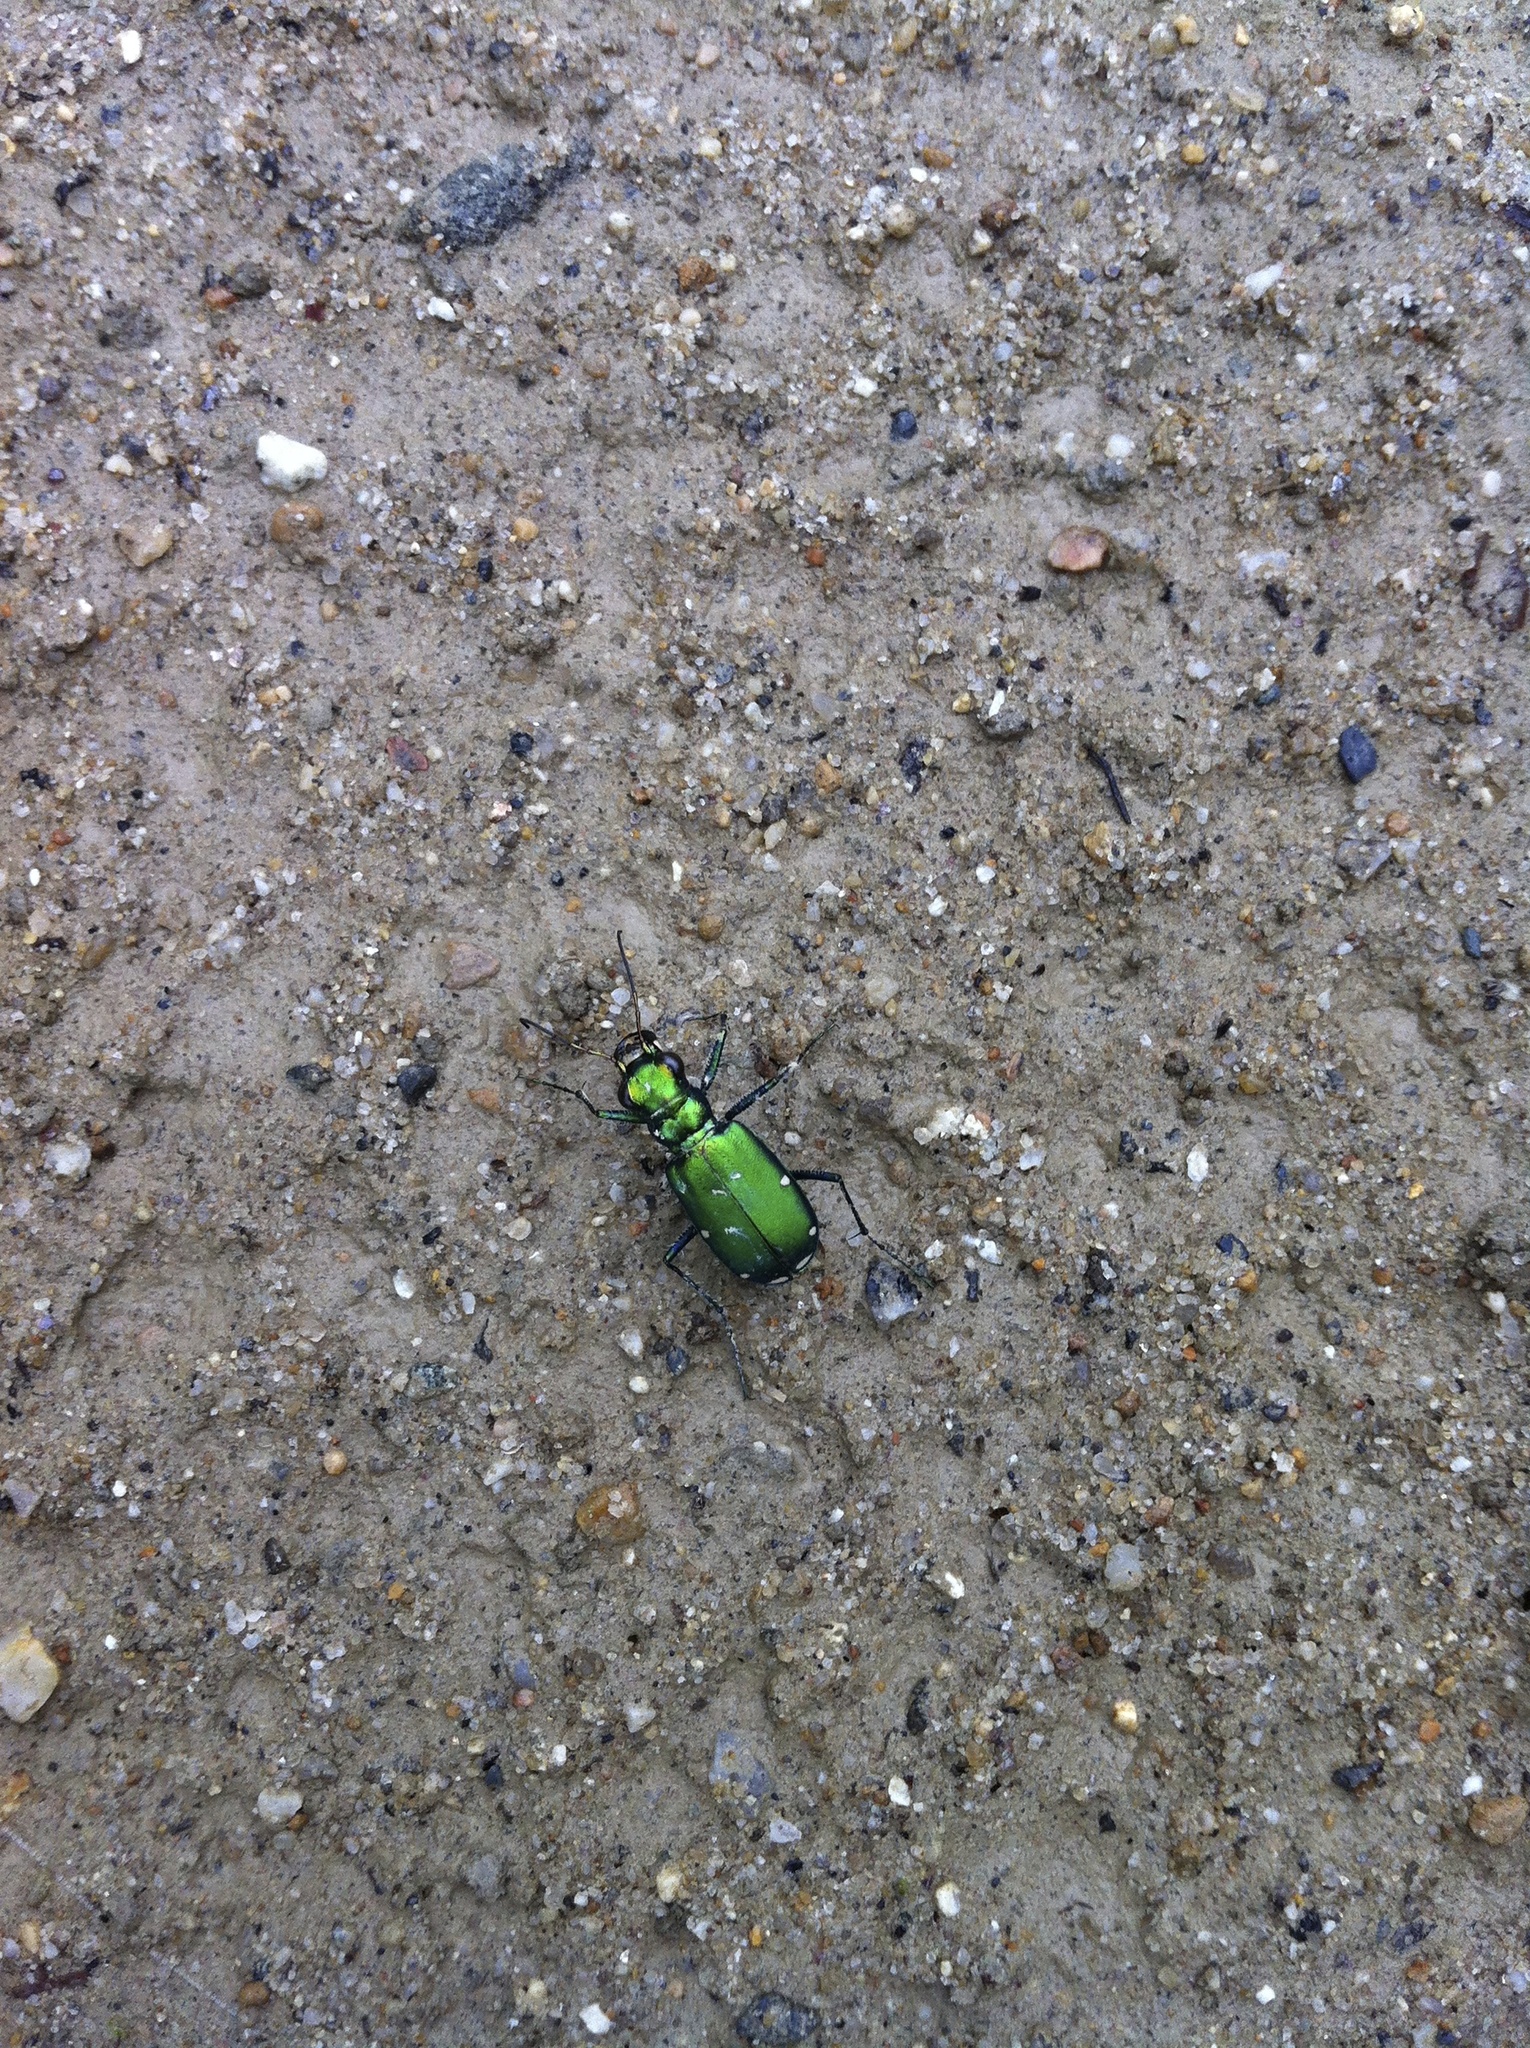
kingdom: Animalia
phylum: Arthropoda
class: Insecta
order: Coleoptera
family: Carabidae
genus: Cicindela
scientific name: Cicindela sexguttata
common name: Six-spotted tiger beetle
